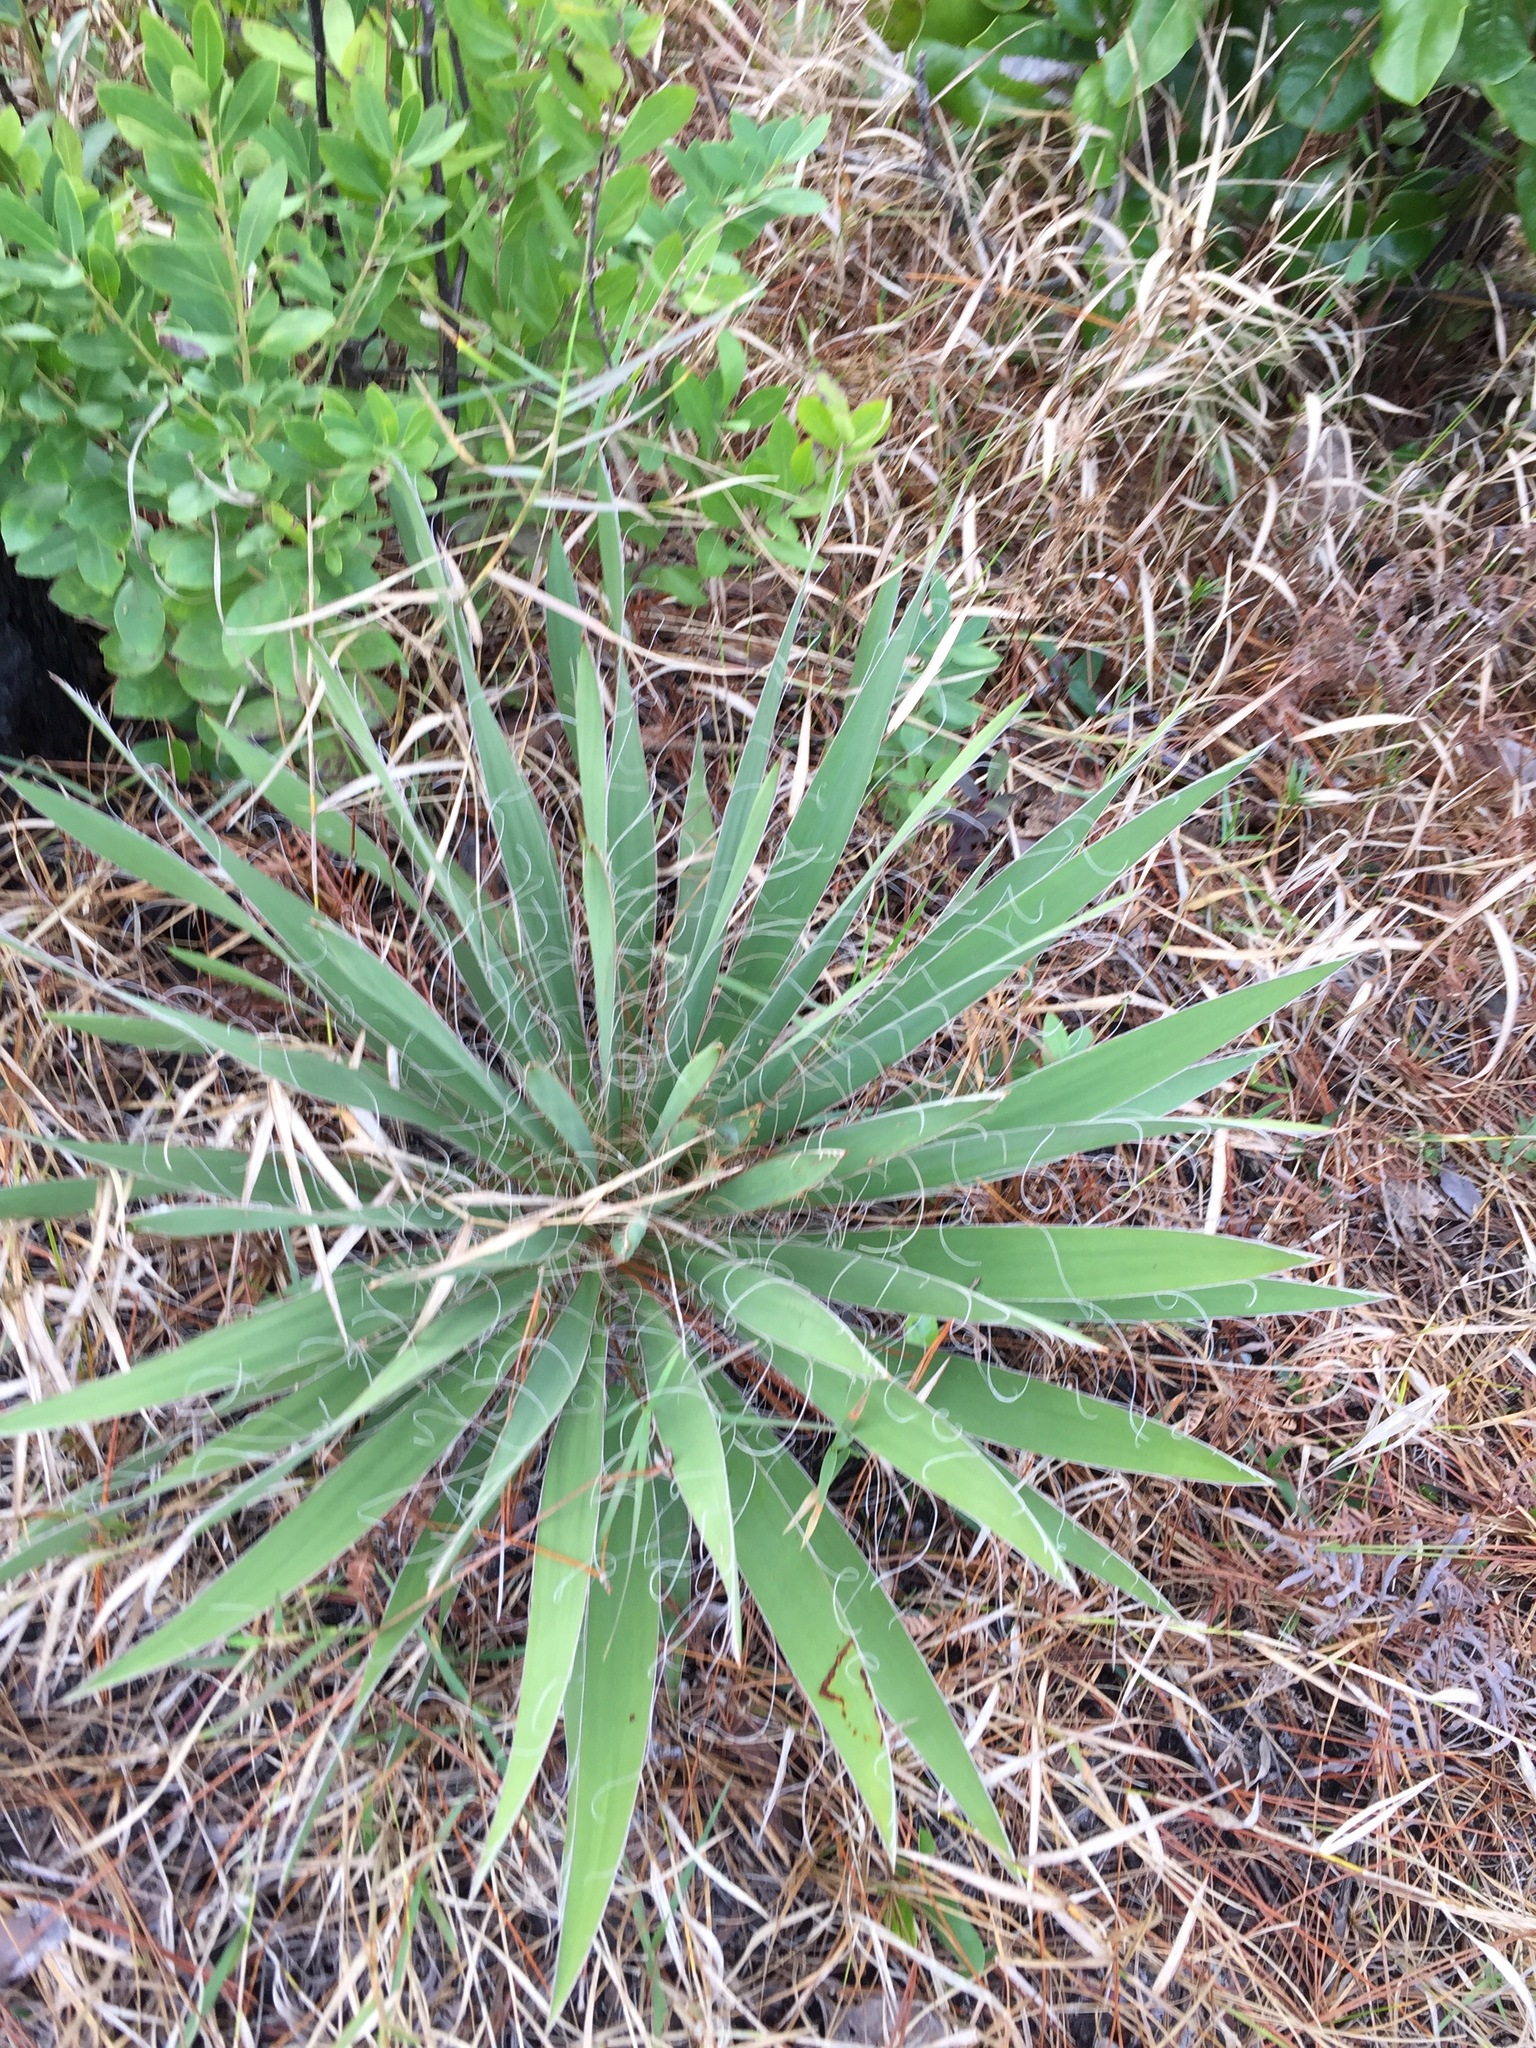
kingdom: Plantae
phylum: Tracheophyta
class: Liliopsida
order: Asparagales
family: Asparagaceae
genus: Yucca
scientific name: Yucca filamentosa
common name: Adam's-needle
